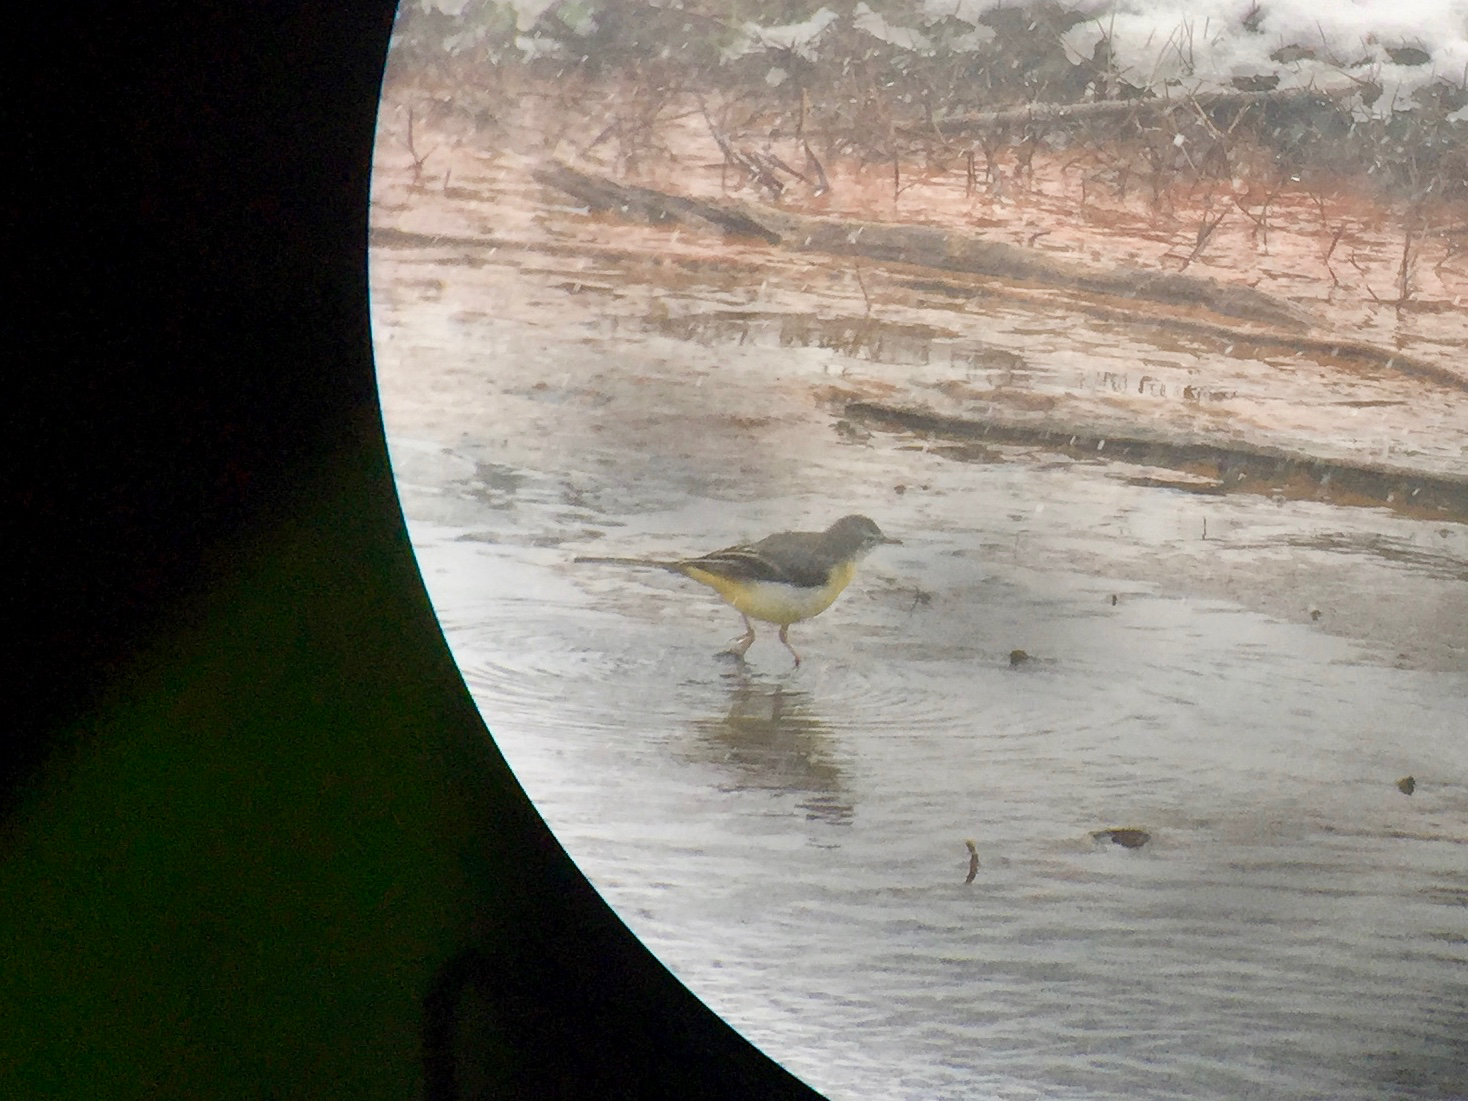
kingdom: Animalia
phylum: Chordata
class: Aves
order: Passeriformes
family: Motacillidae
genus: Motacilla
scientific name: Motacilla cinerea
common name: Grey wagtail
